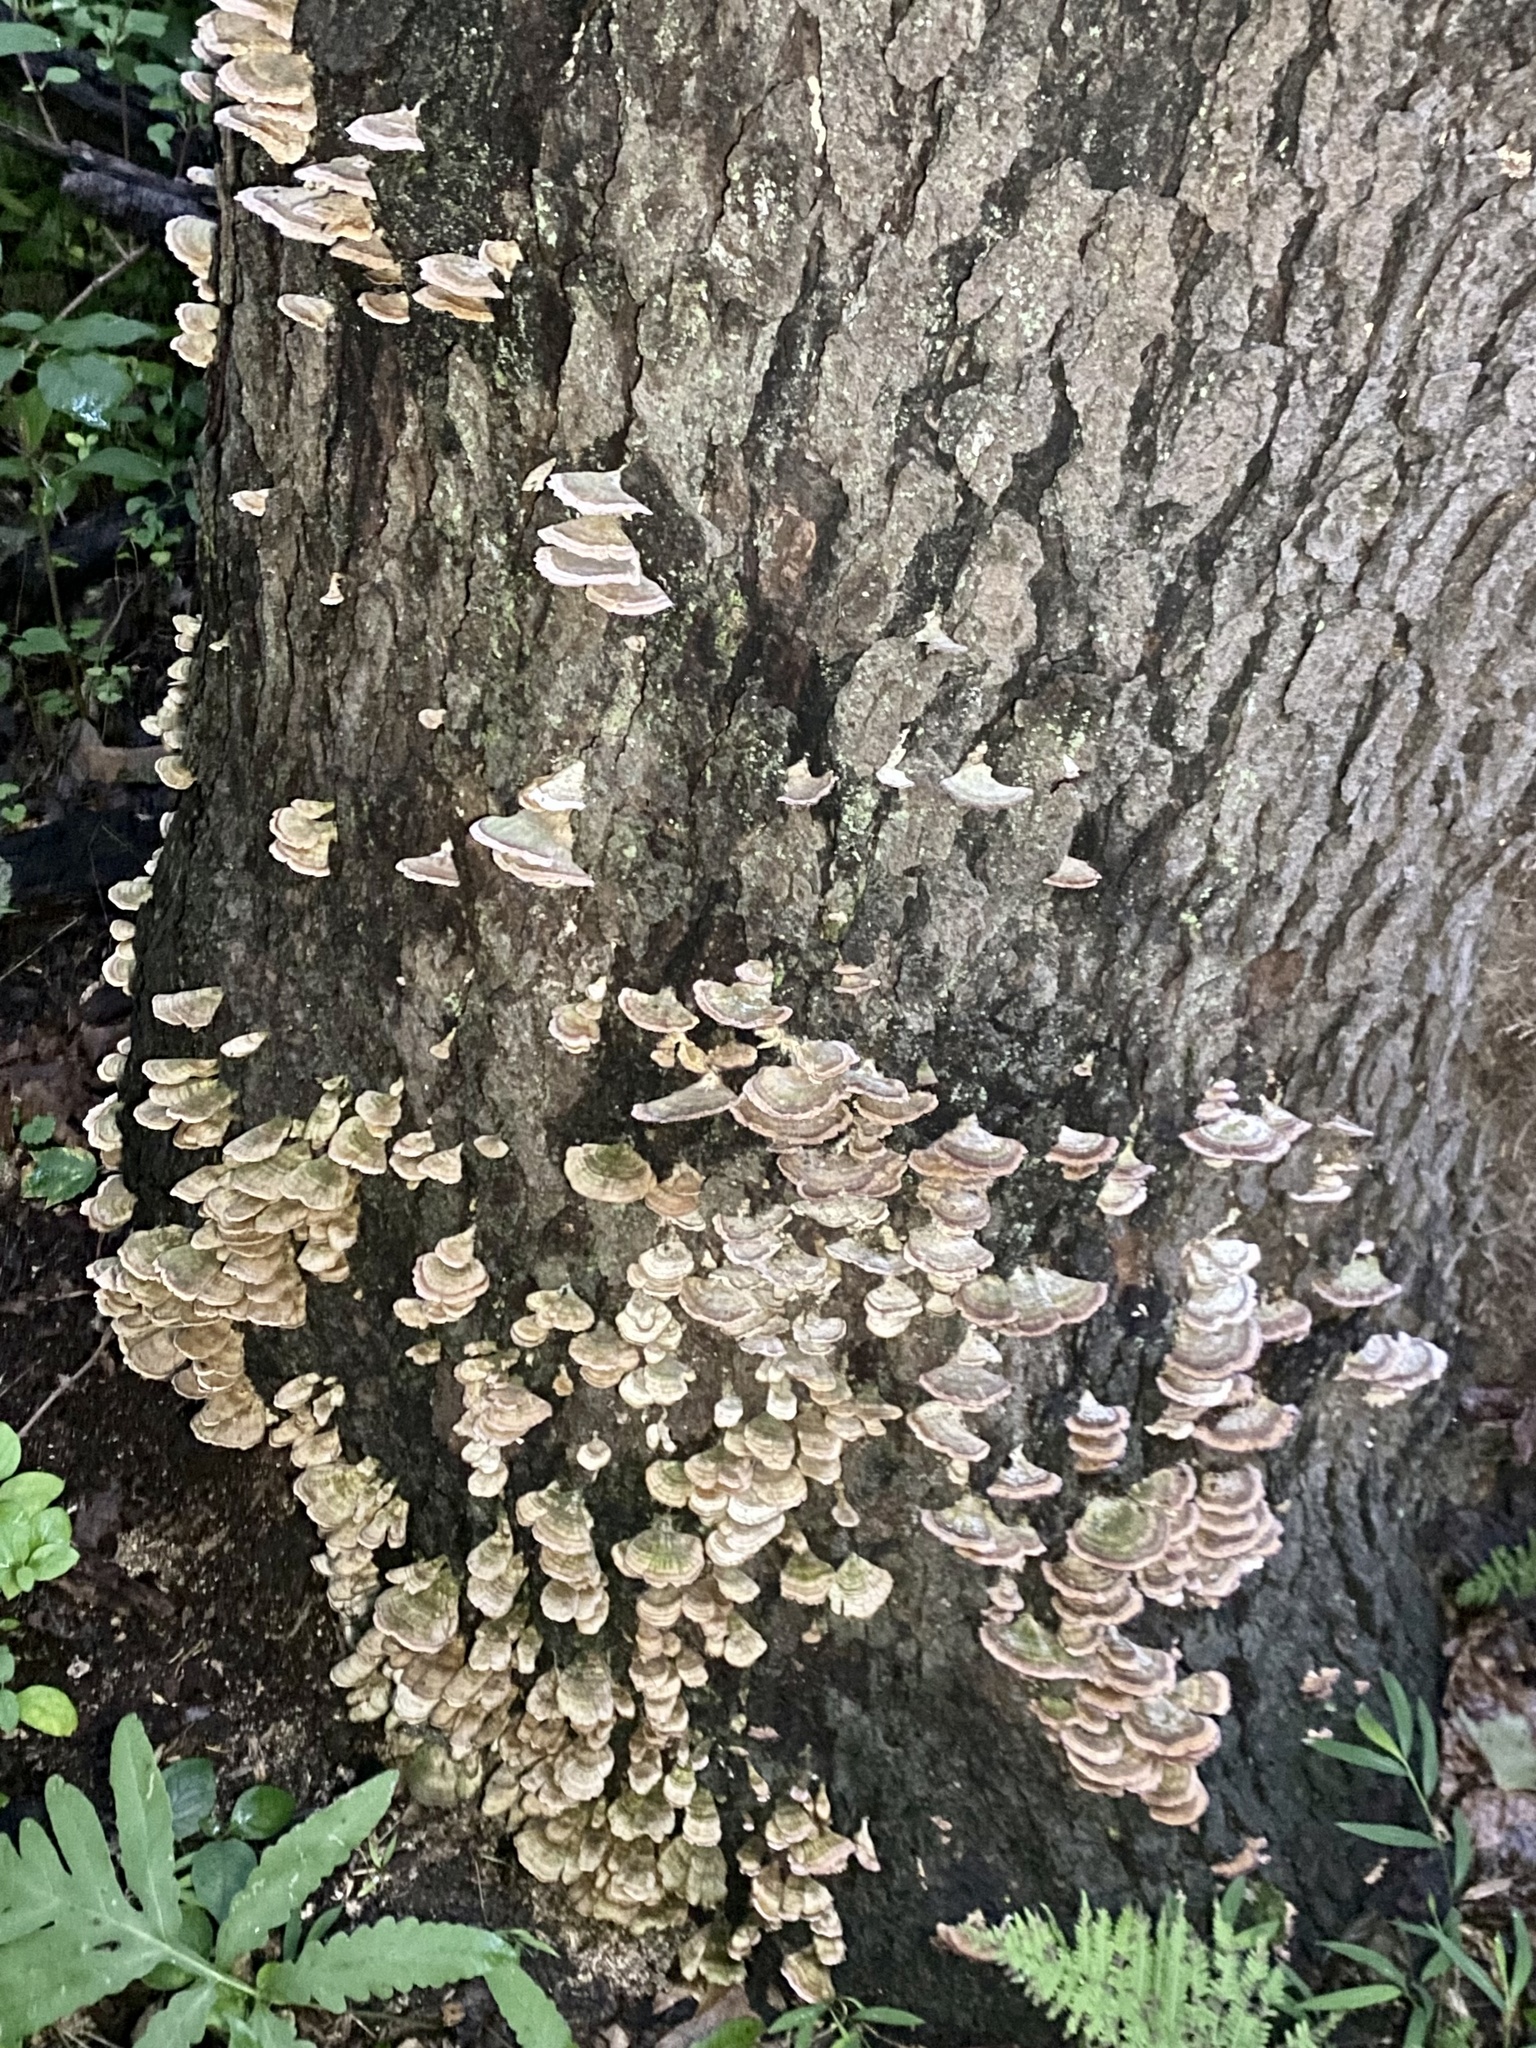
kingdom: Fungi
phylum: Basidiomycota
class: Agaricomycetes
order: Hymenochaetales
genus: Trichaptum
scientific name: Trichaptum biforme
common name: Violet-toothed polypore
